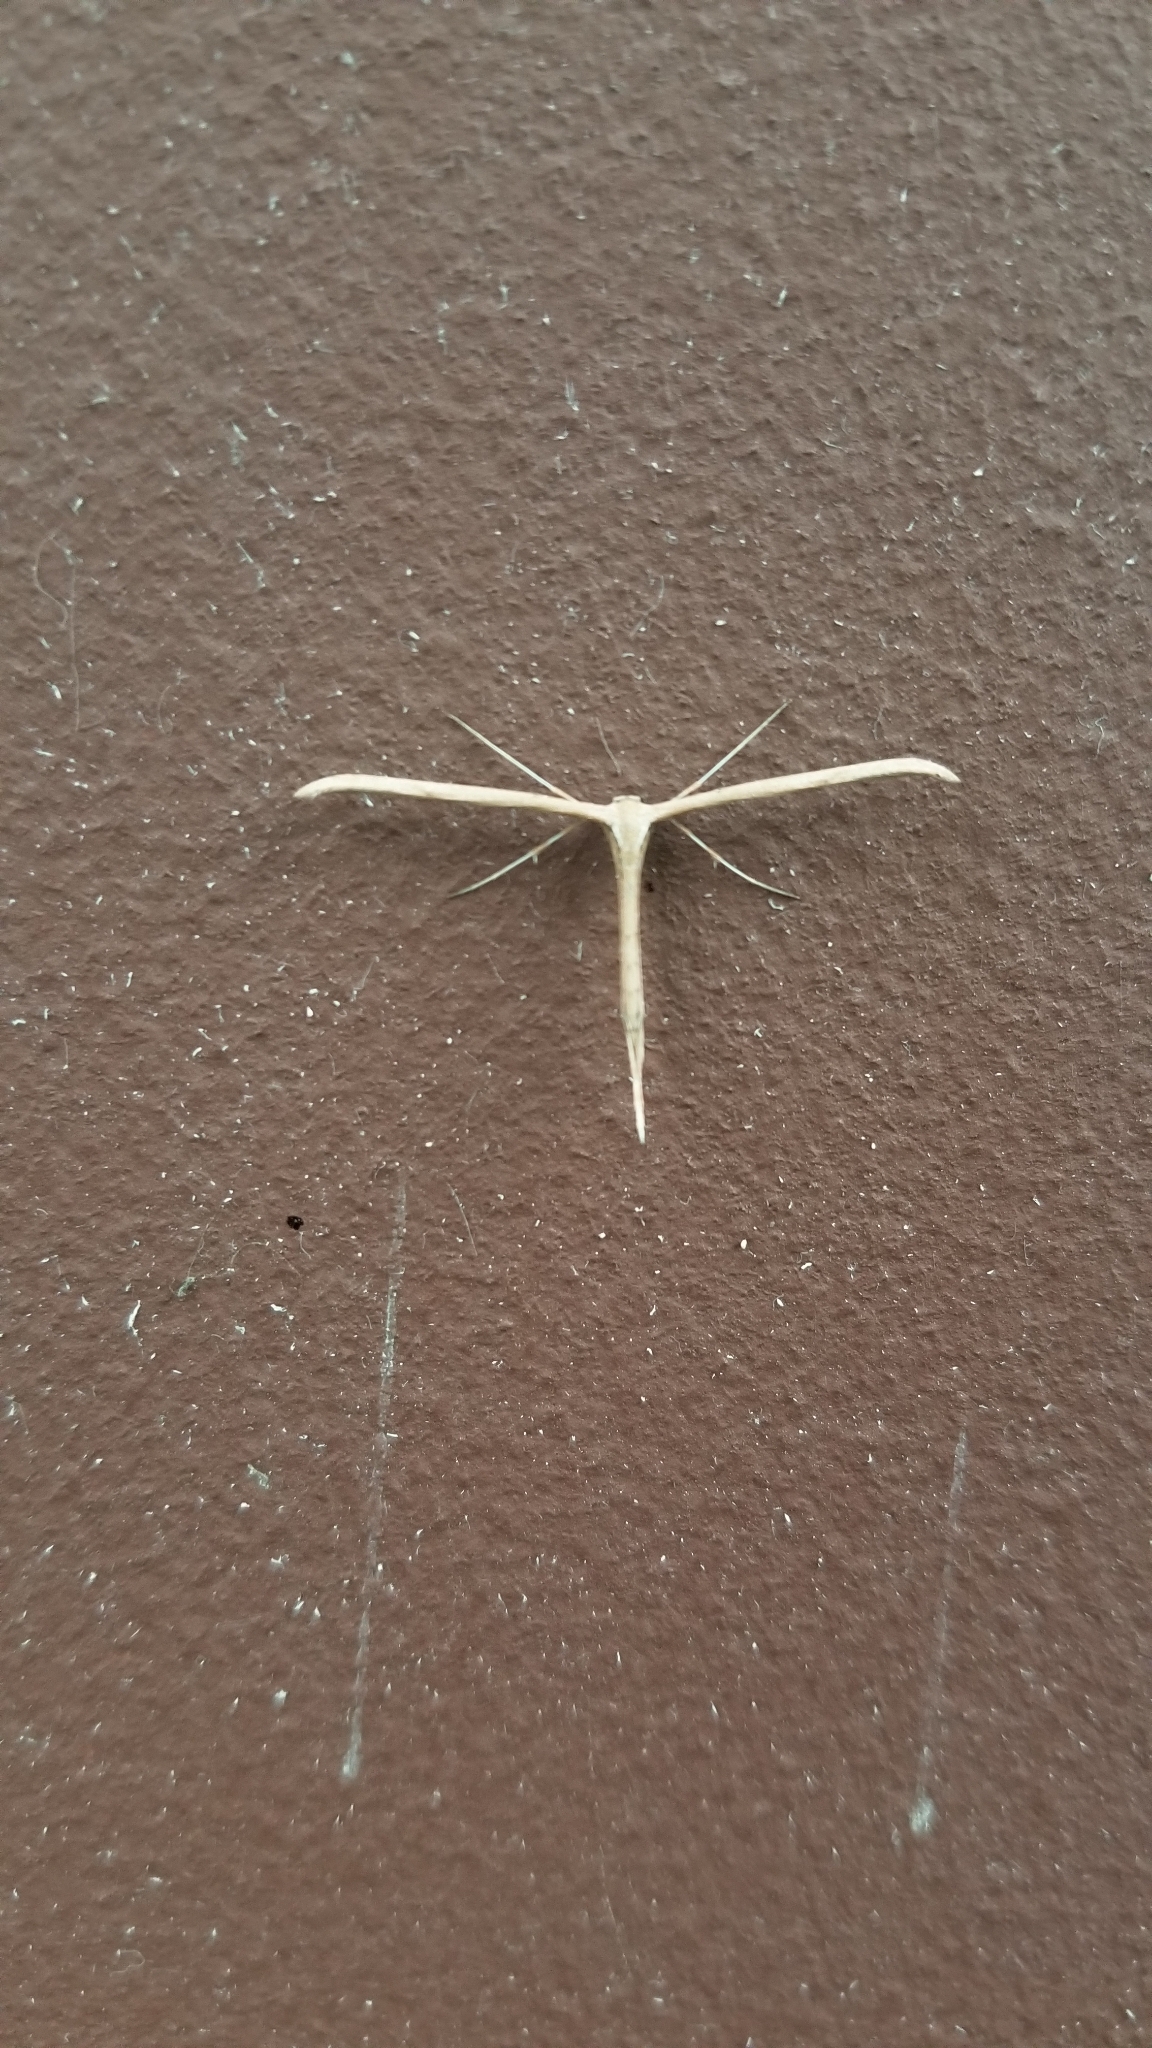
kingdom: Animalia
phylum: Arthropoda
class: Insecta
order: Lepidoptera
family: Pterophoridae
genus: Emmelina
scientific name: Emmelina monodactyla
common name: Common plume
